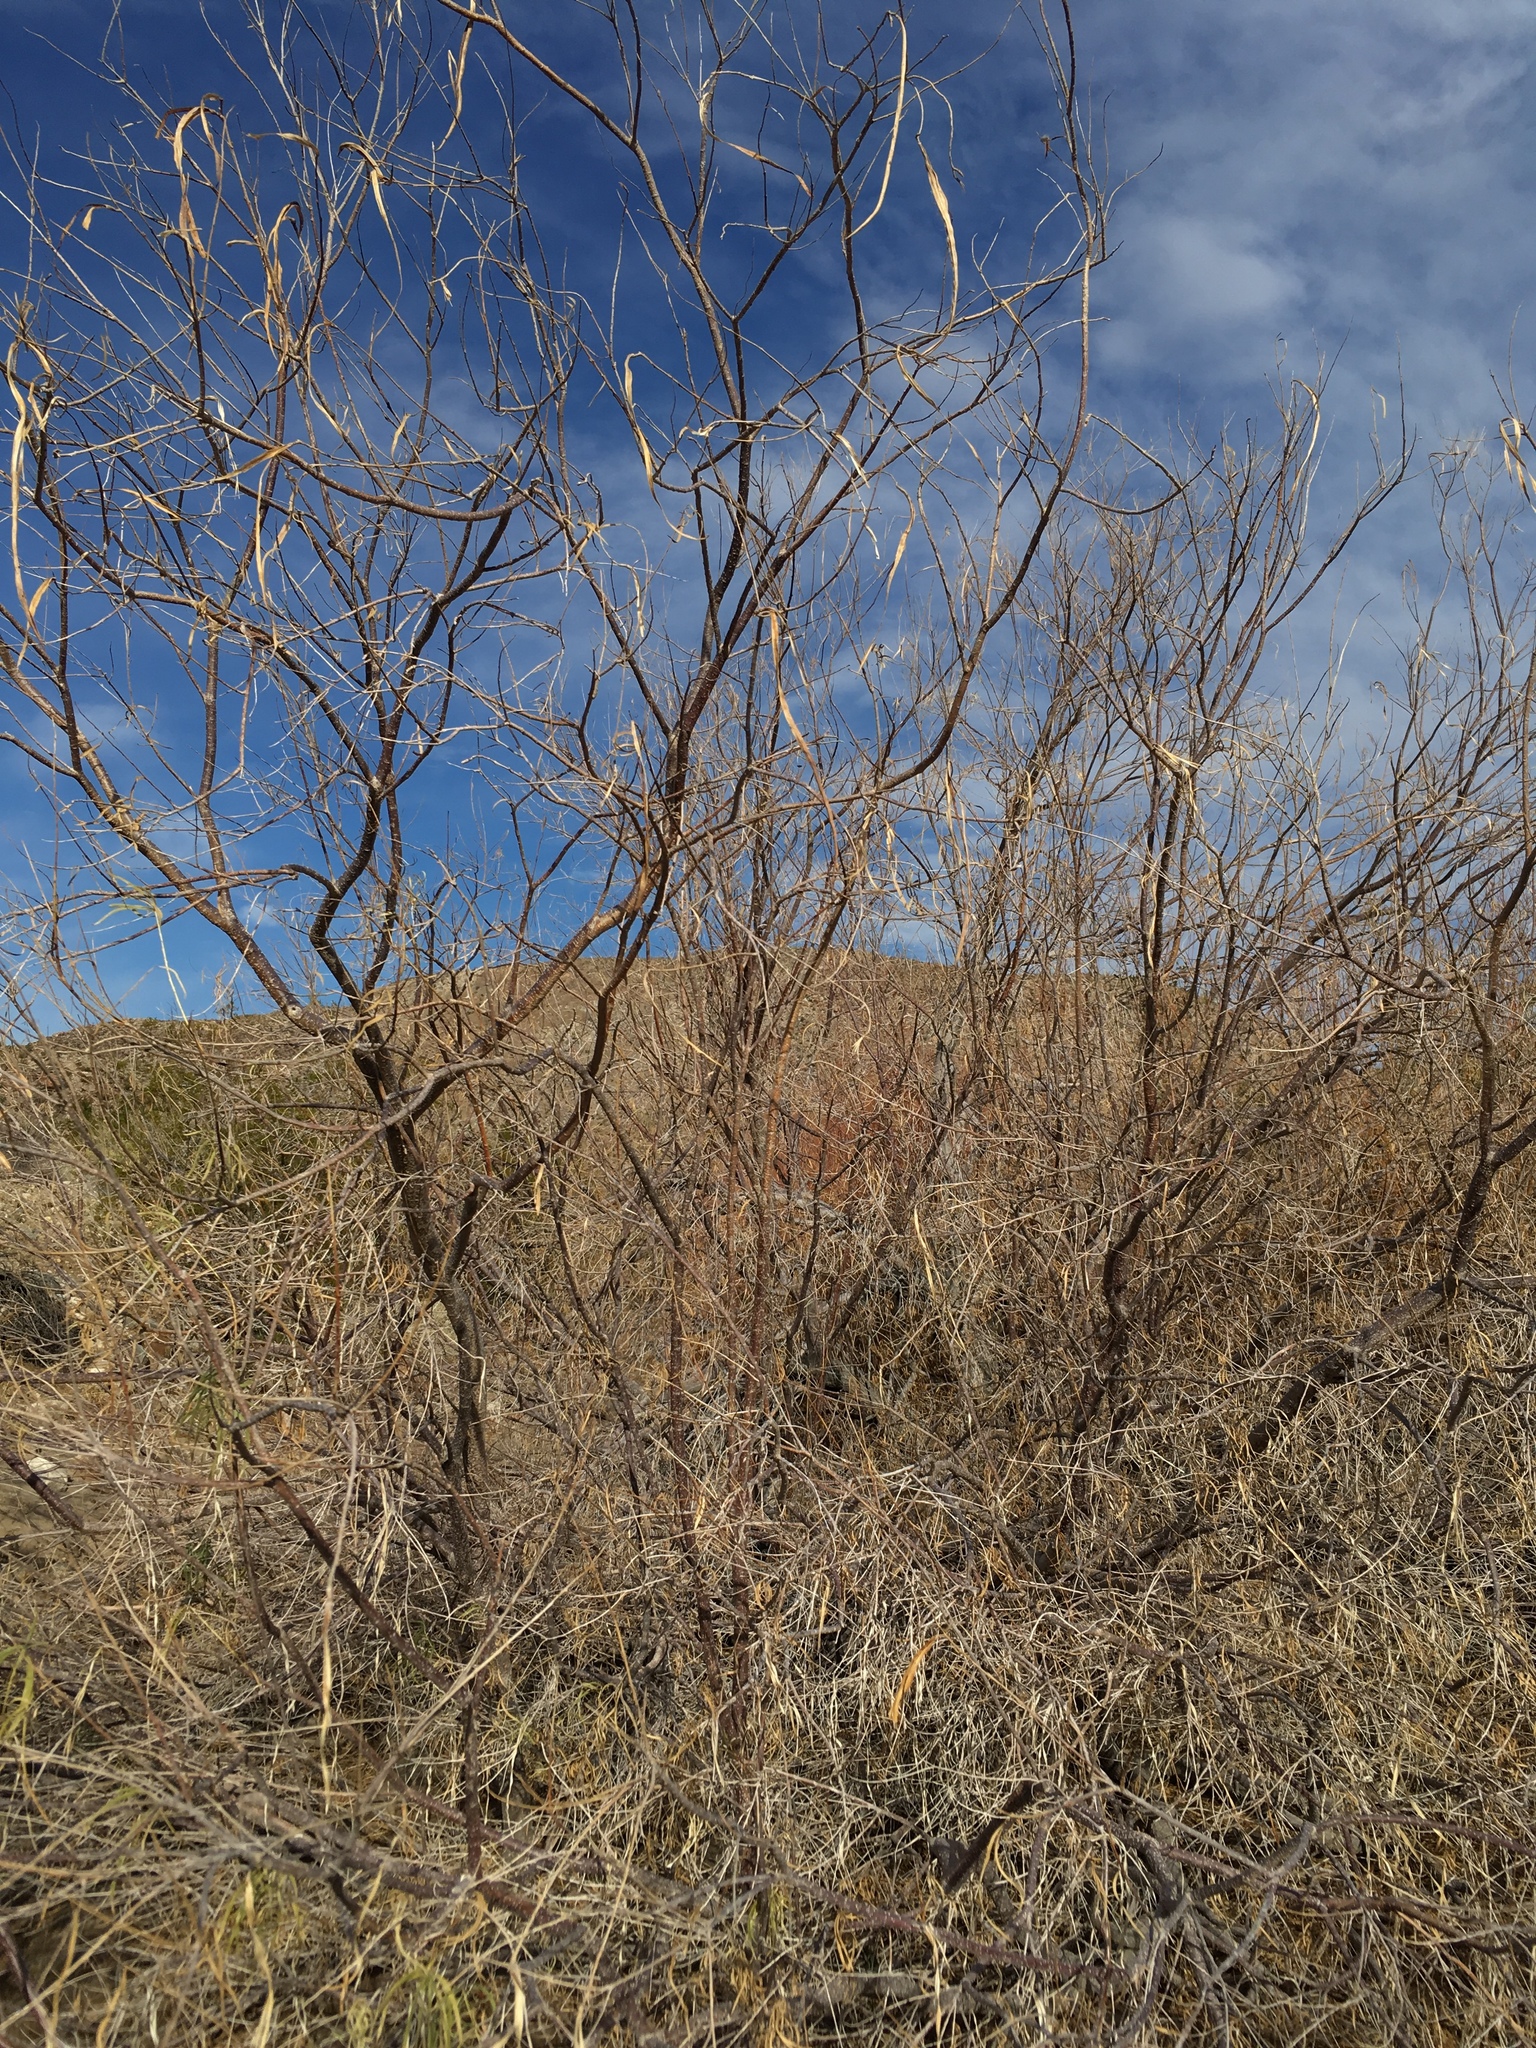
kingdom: Plantae
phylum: Tracheophyta
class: Magnoliopsida
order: Lamiales
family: Bignoniaceae
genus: Chilopsis
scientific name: Chilopsis linearis
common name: Desert-willow
